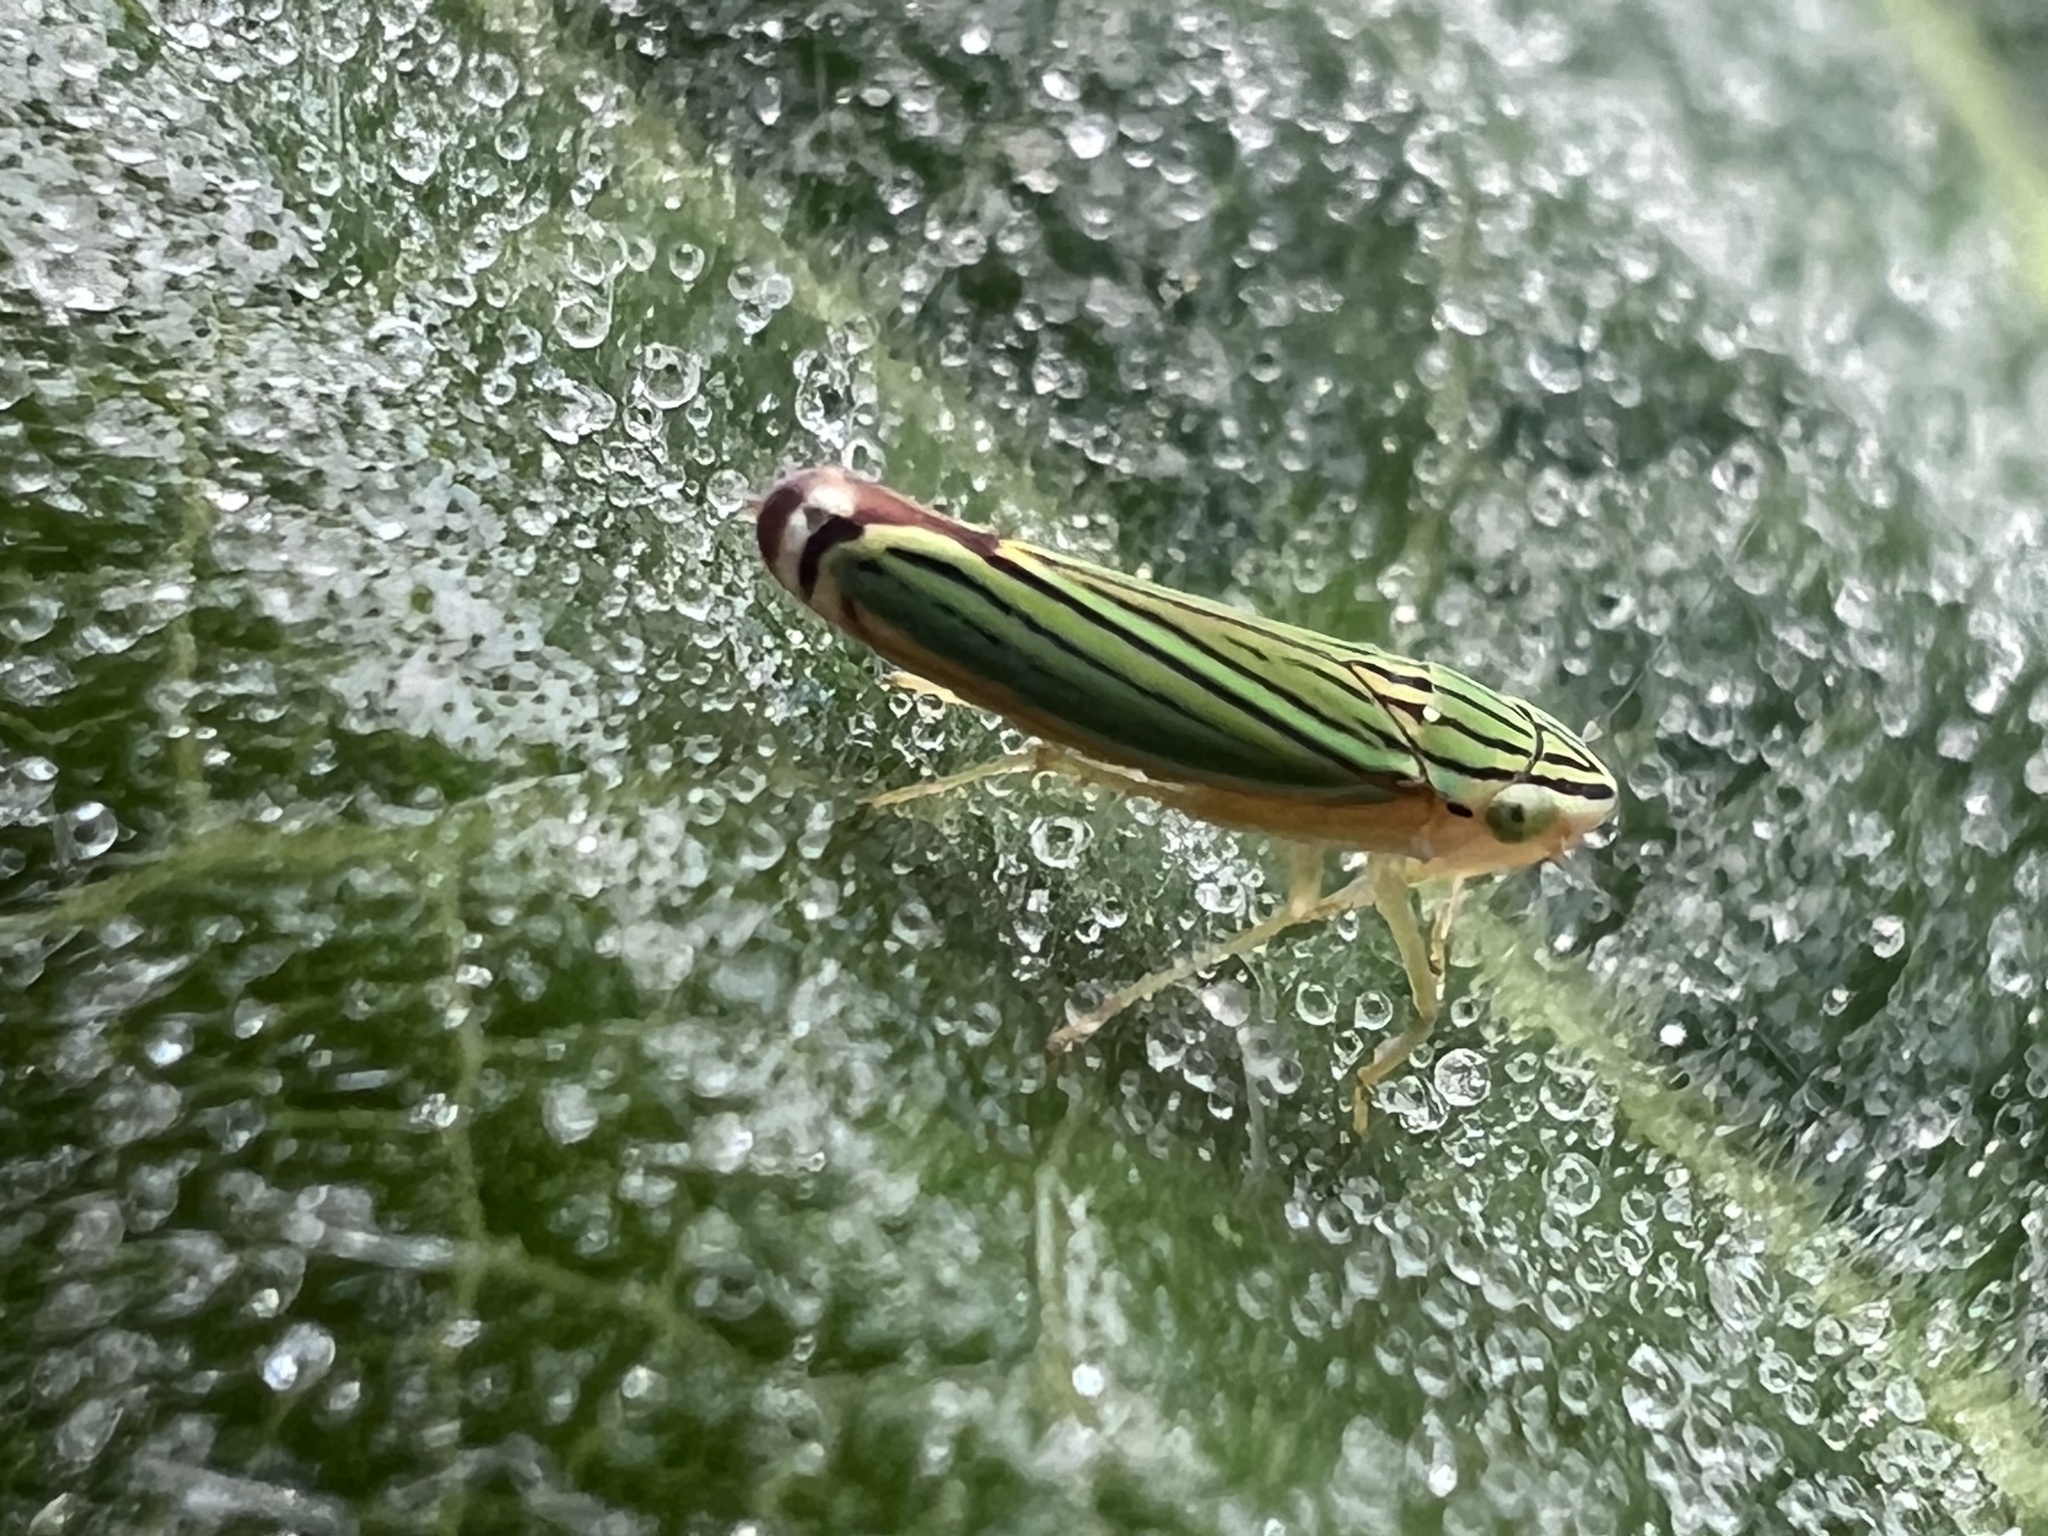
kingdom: Animalia
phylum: Arthropoda
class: Insecta
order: Hemiptera
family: Cicadellidae
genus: Sibovia
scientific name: Sibovia nielsoni
